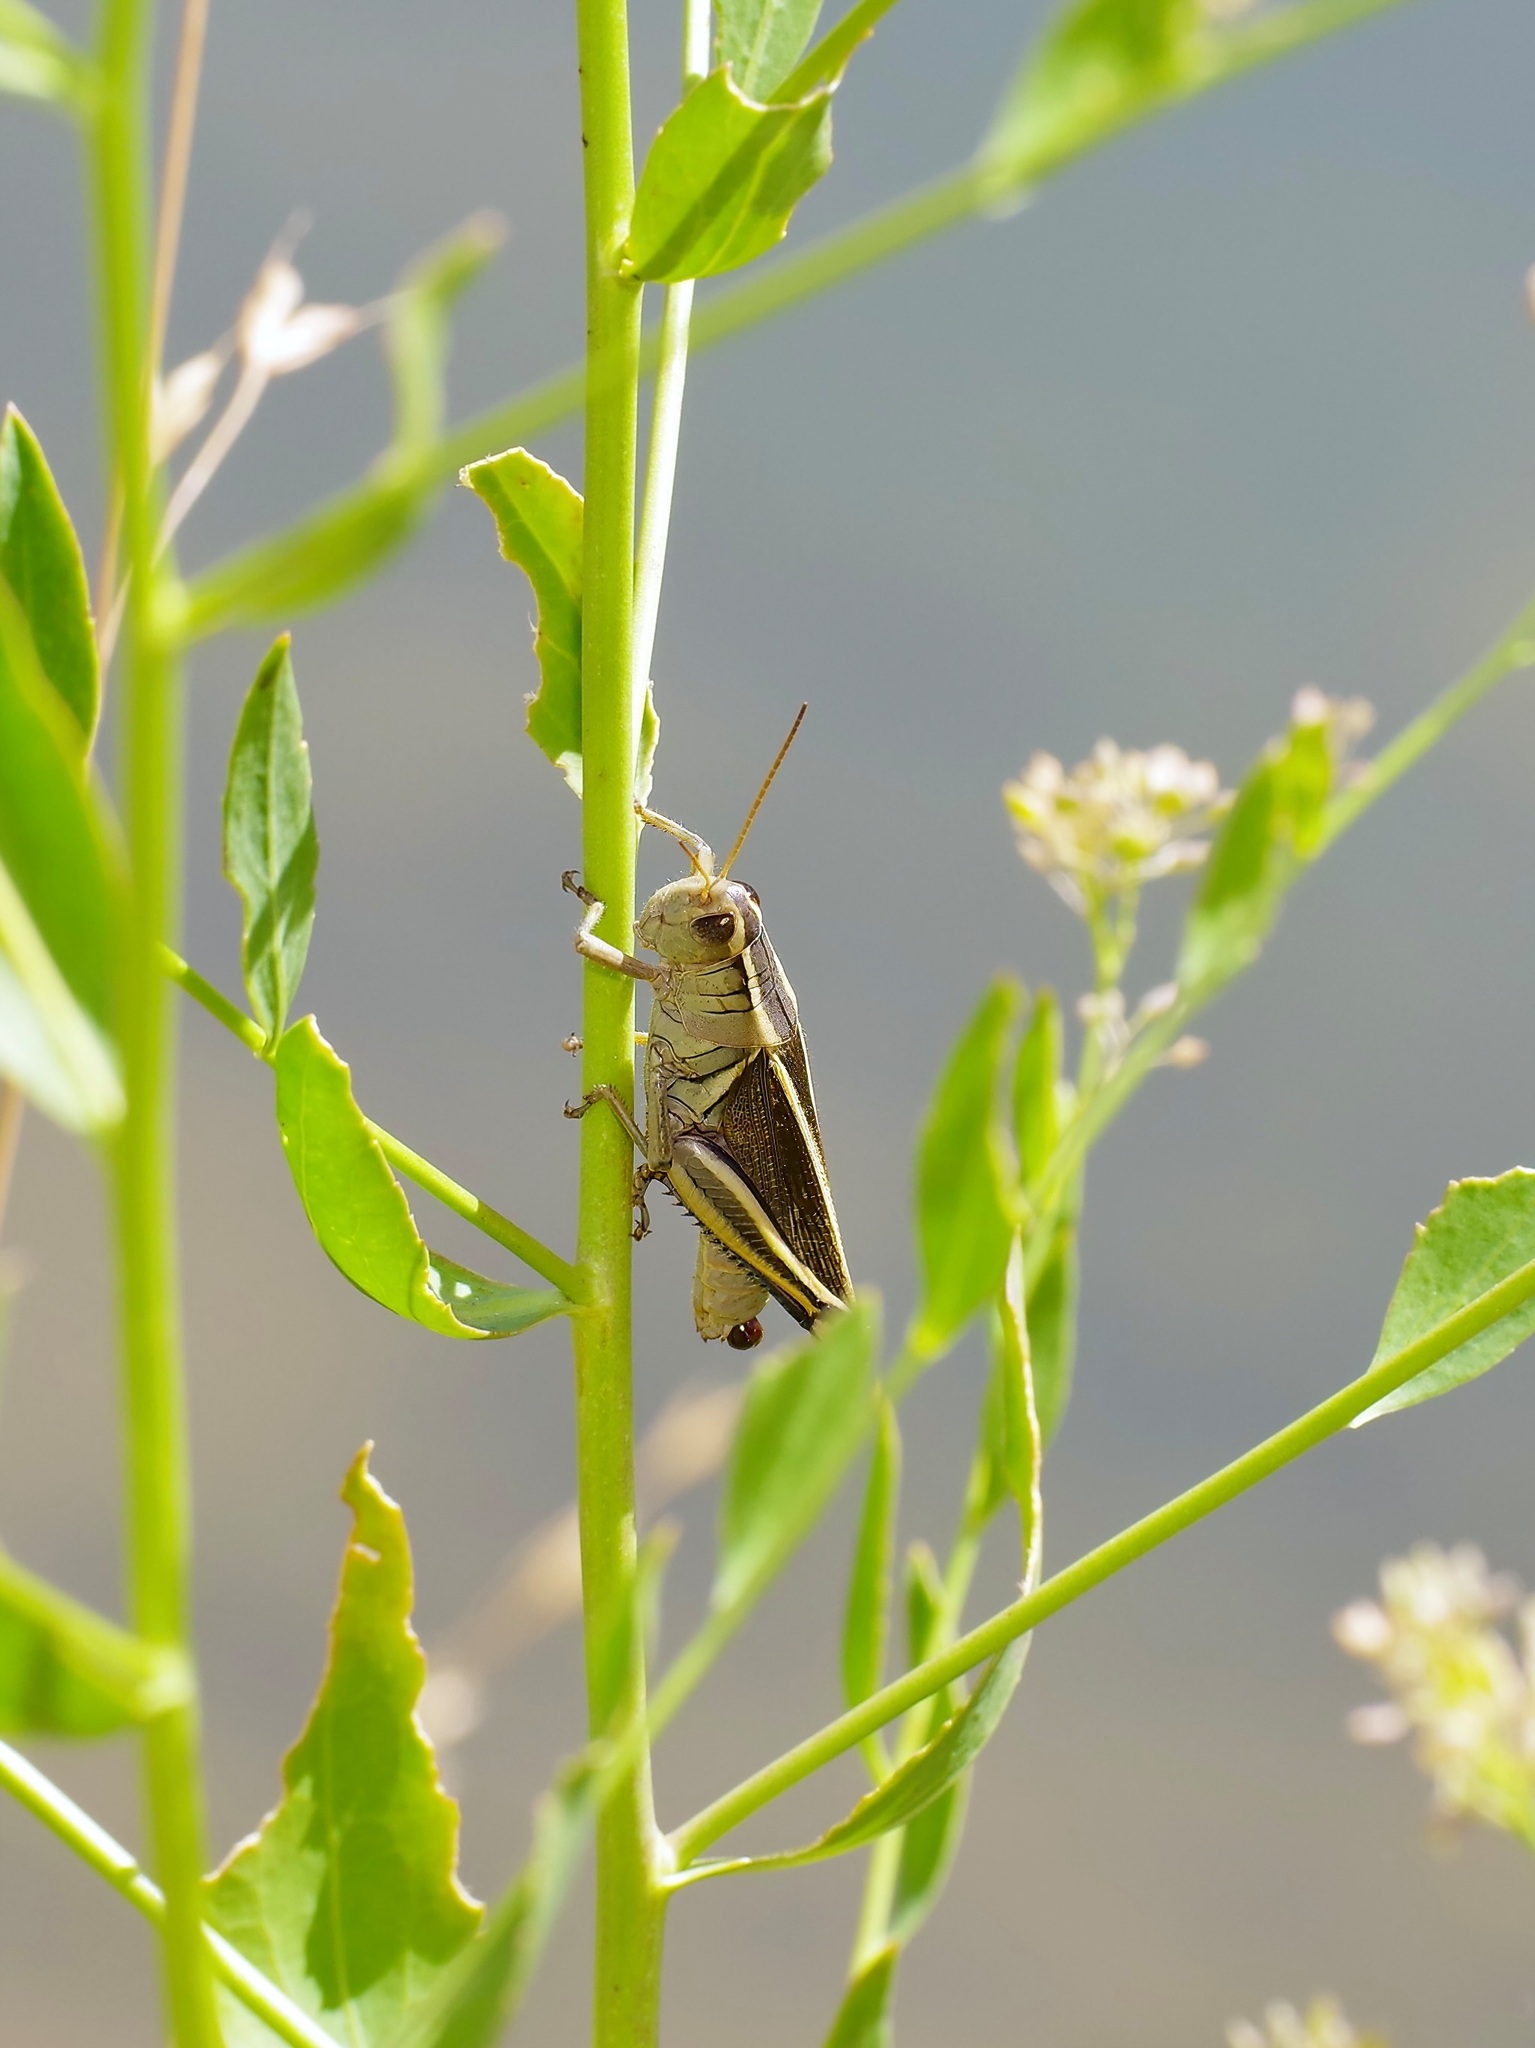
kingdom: Animalia
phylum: Arthropoda
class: Insecta
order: Orthoptera
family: Acrididae
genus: Melanoplus
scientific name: Melanoplus bivittatus
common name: Two-striped grasshopper
